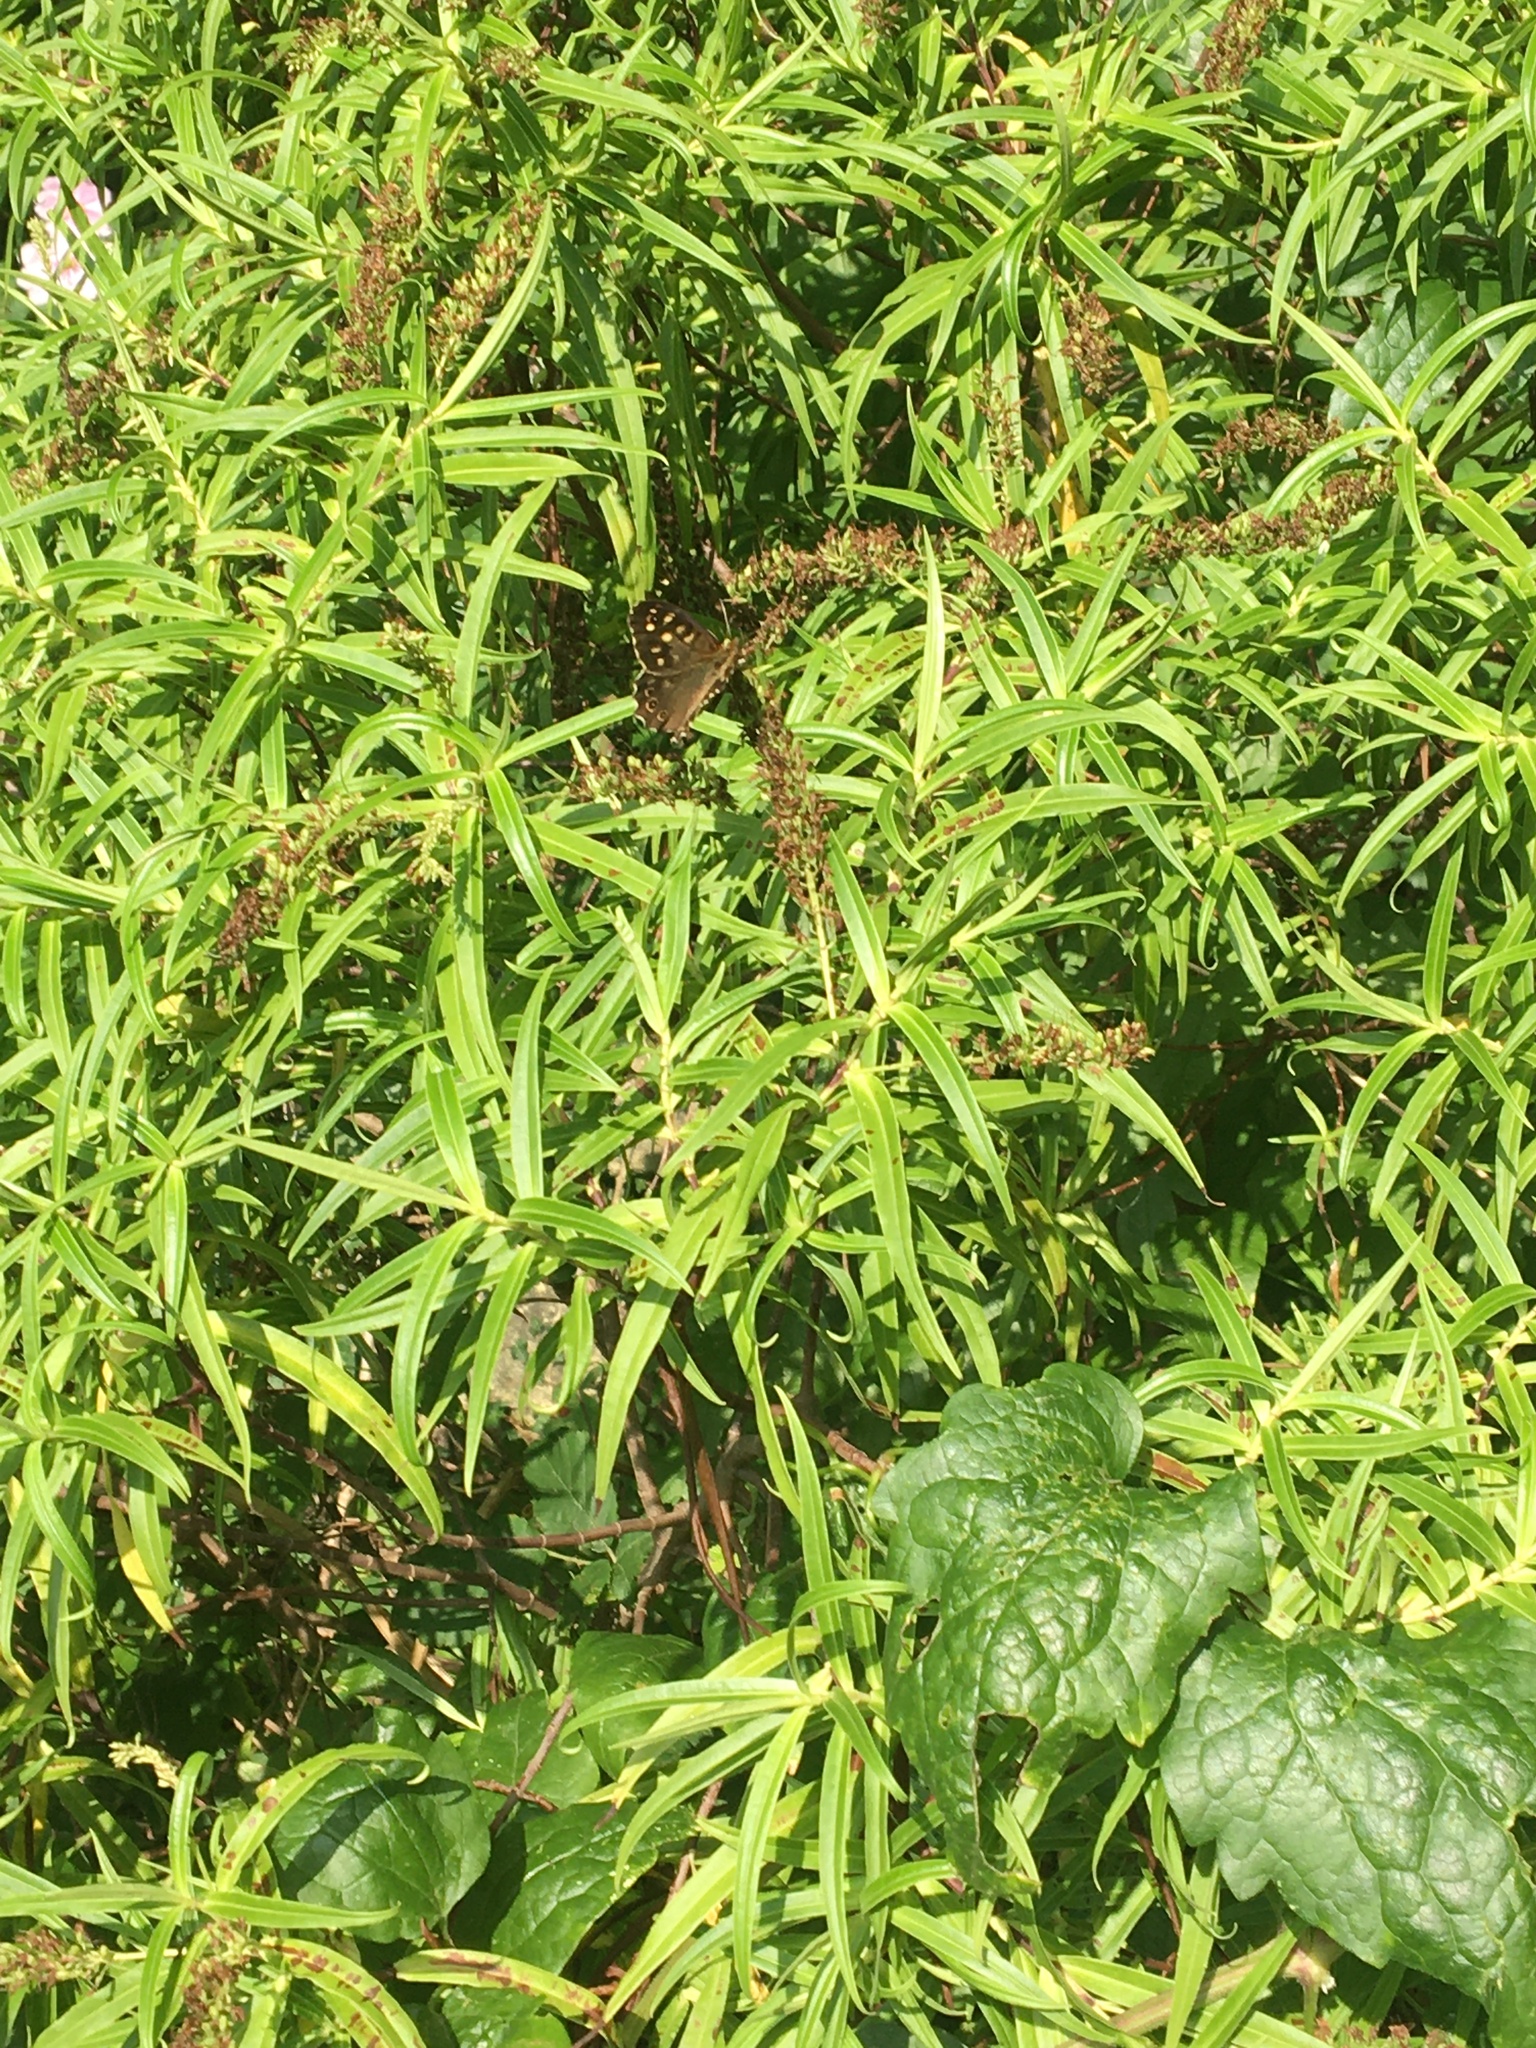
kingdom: Animalia
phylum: Arthropoda
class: Insecta
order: Lepidoptera
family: Nymphalidae
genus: Pararge
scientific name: Pararge aegeria
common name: Speckled wood
